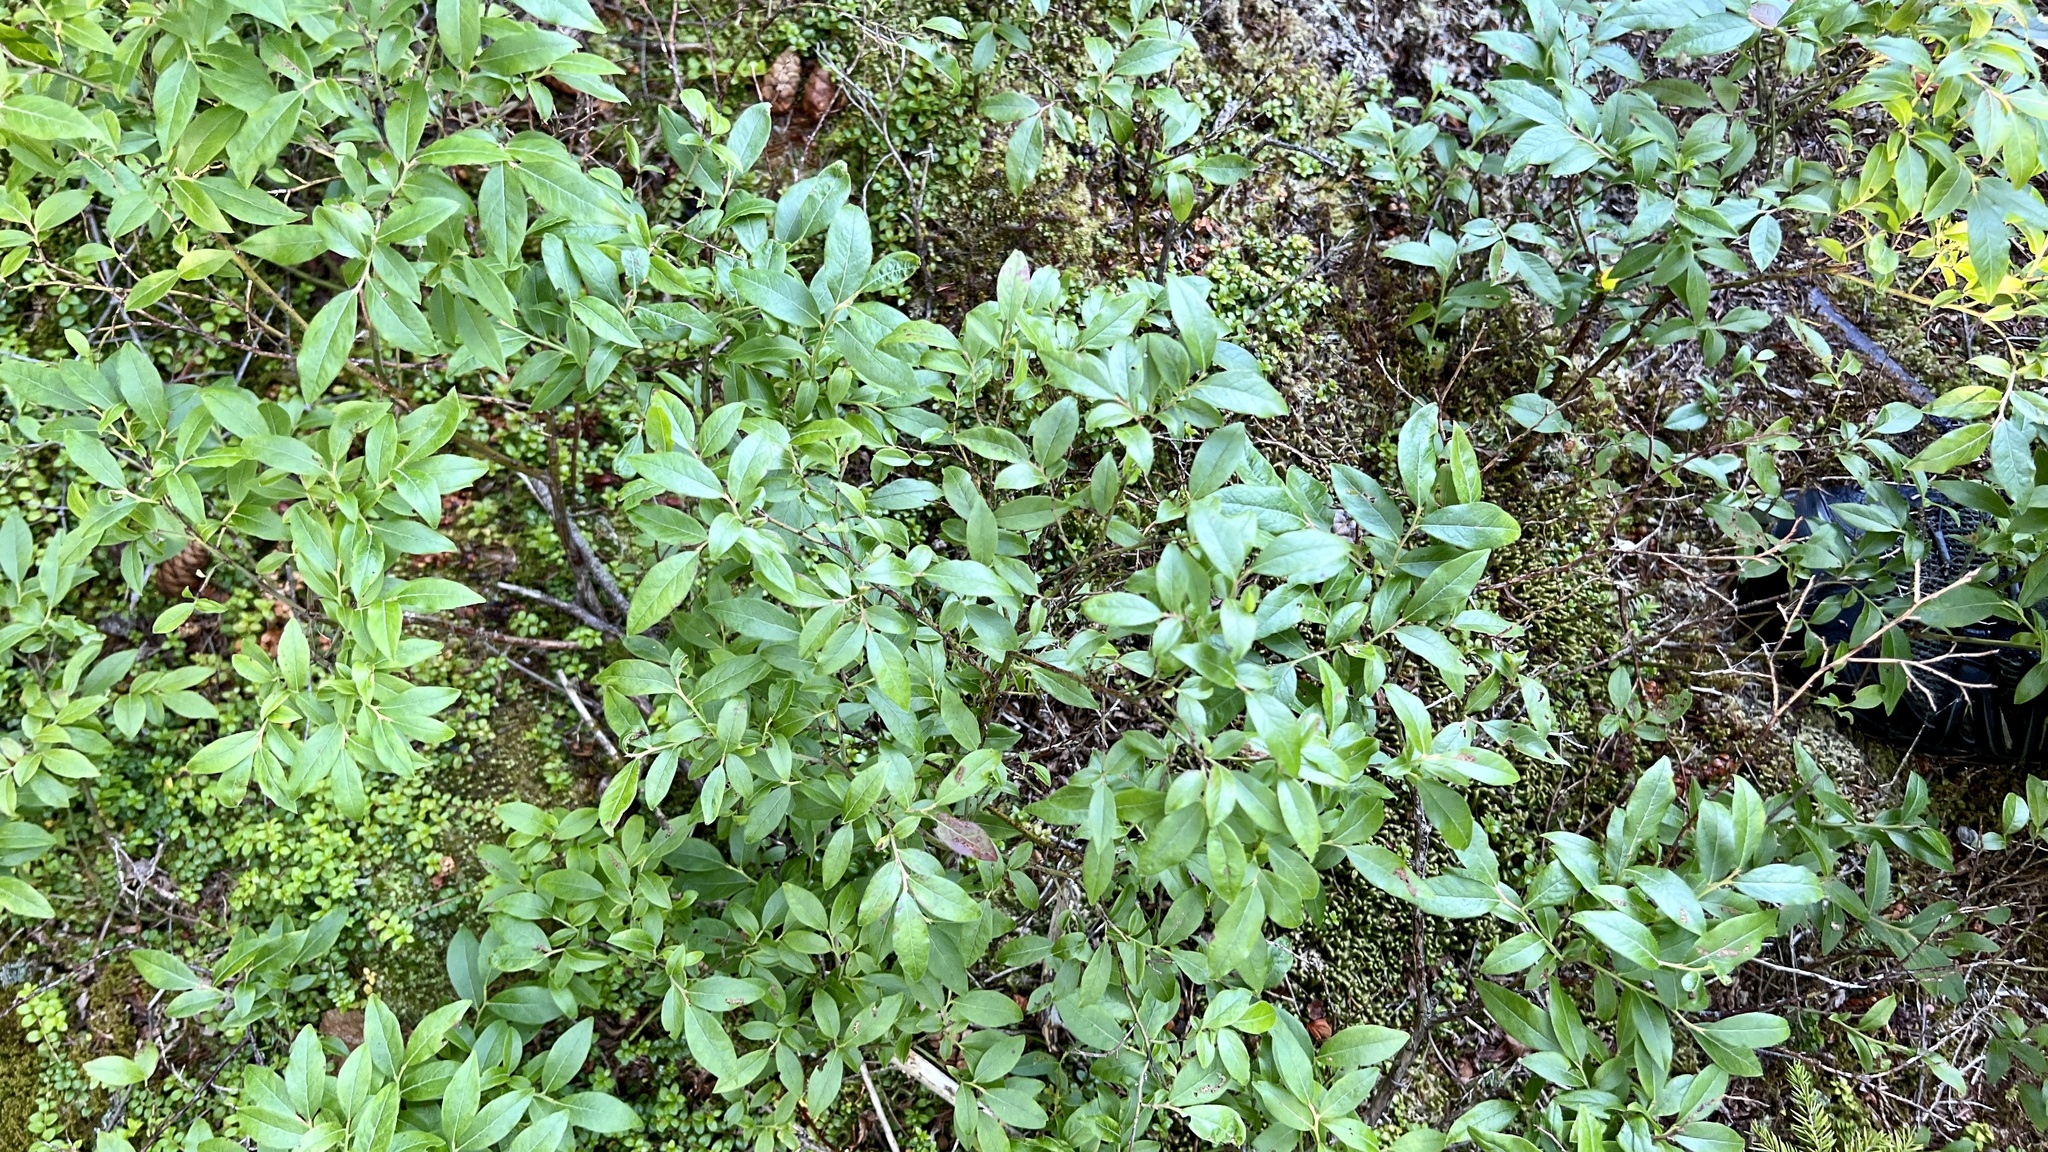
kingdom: Plantae
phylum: Tracheophyta
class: Magnoliopsida
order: Ericales
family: Ericaceae
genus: Vaccinium
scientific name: Vaccinium angustifolium
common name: Early lowbush blueberry
